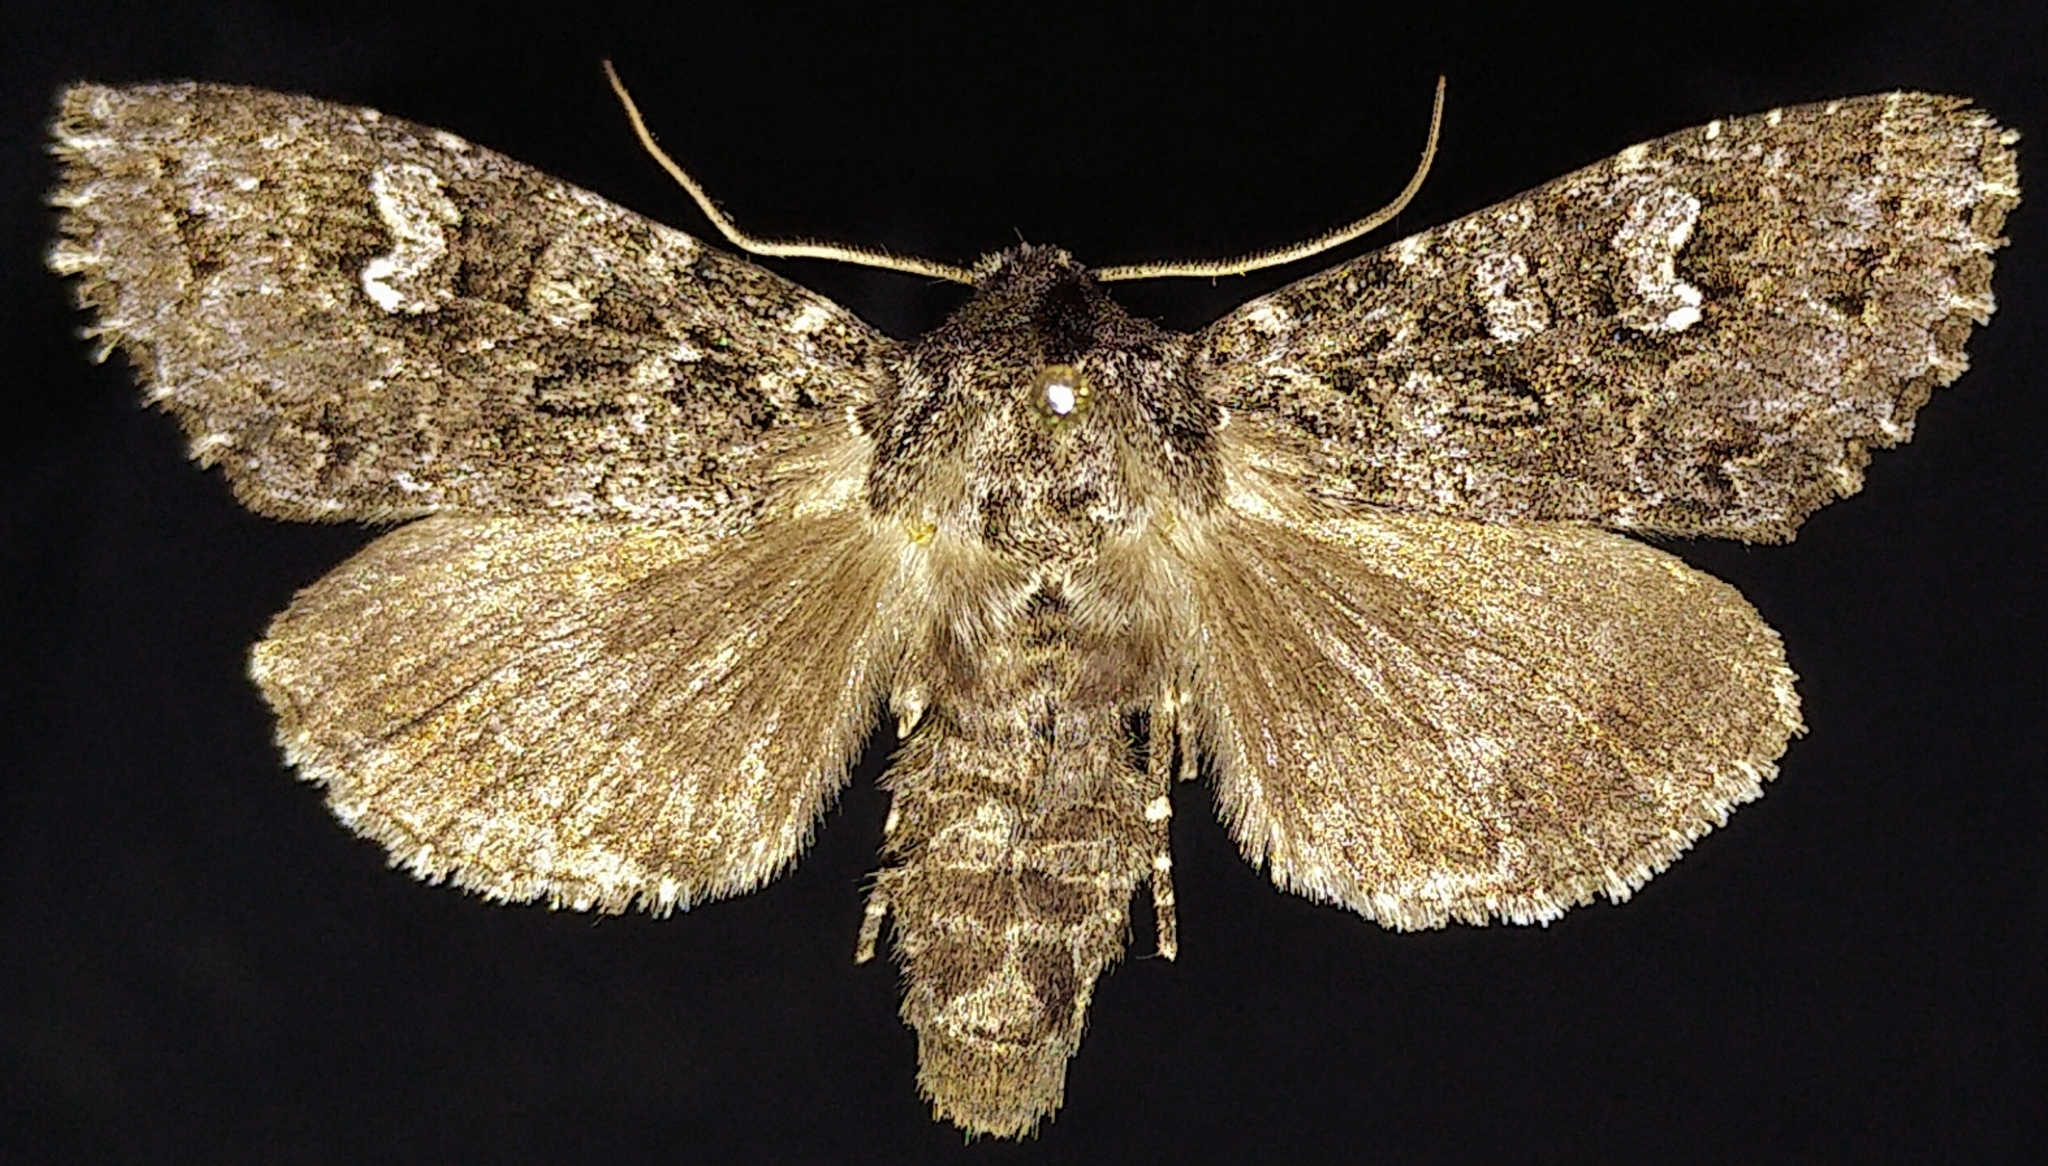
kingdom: Animalia
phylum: Arthropoda
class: Insecta
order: Lepidoptera
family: Noctuidae
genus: Polia
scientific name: Polia rogenhoferi
